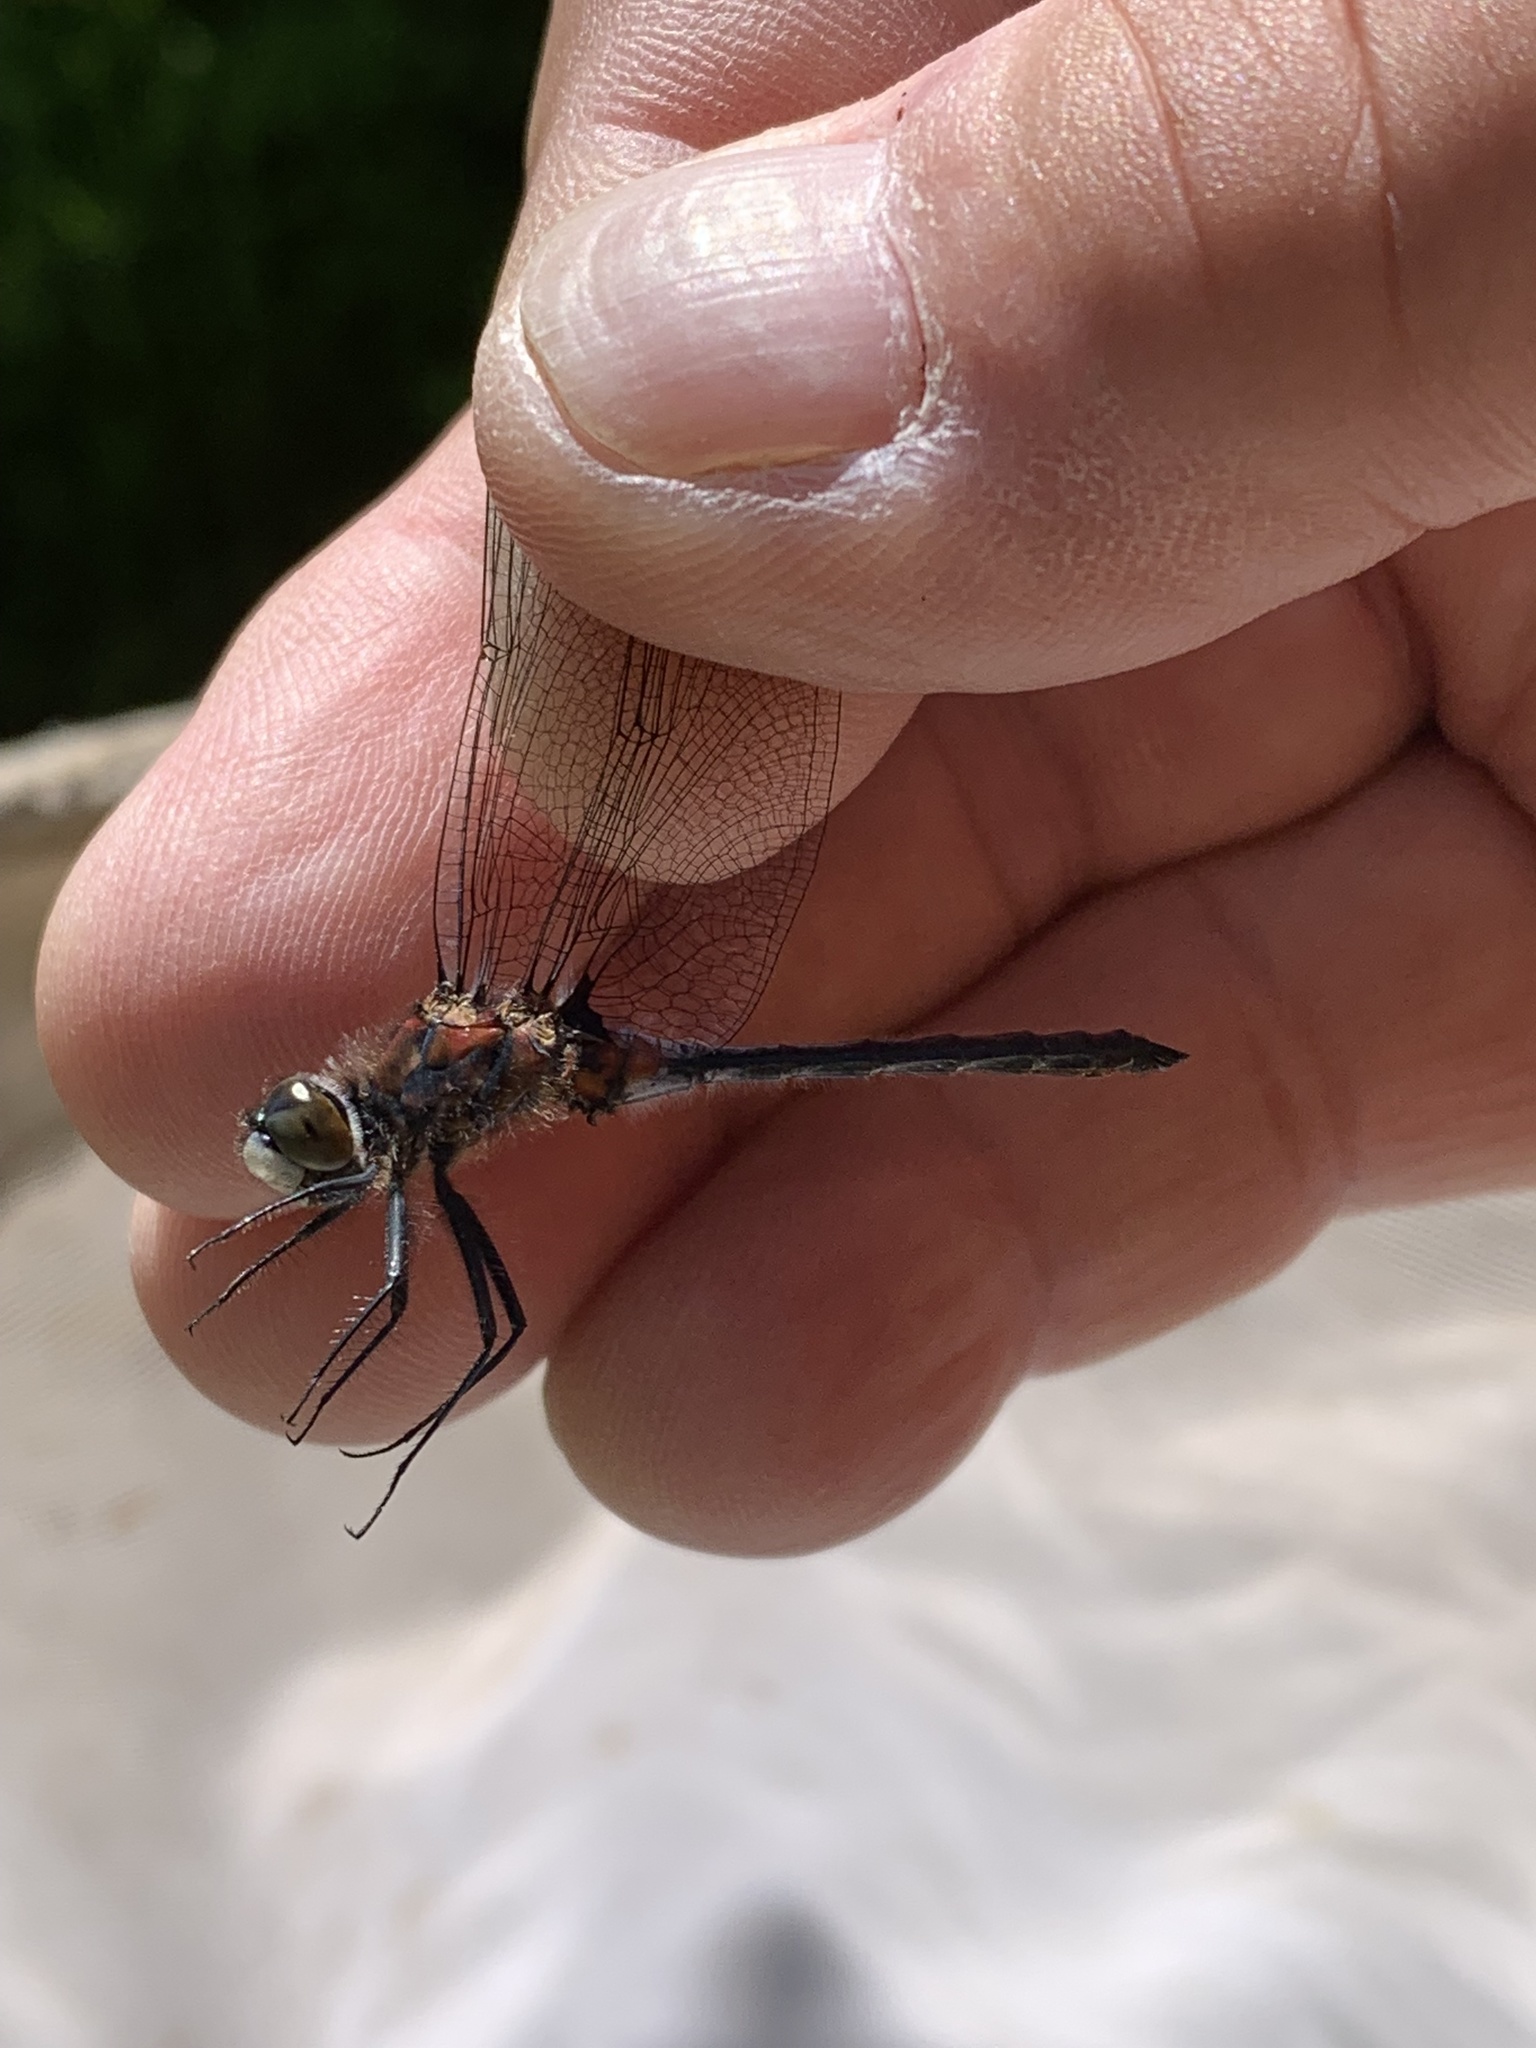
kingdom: Animalia
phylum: Arthropoda
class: Insecta
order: Odonata
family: Libellulidae
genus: Leucorrhinia
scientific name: Leucorrhinia proxima
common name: Belted whiteface
